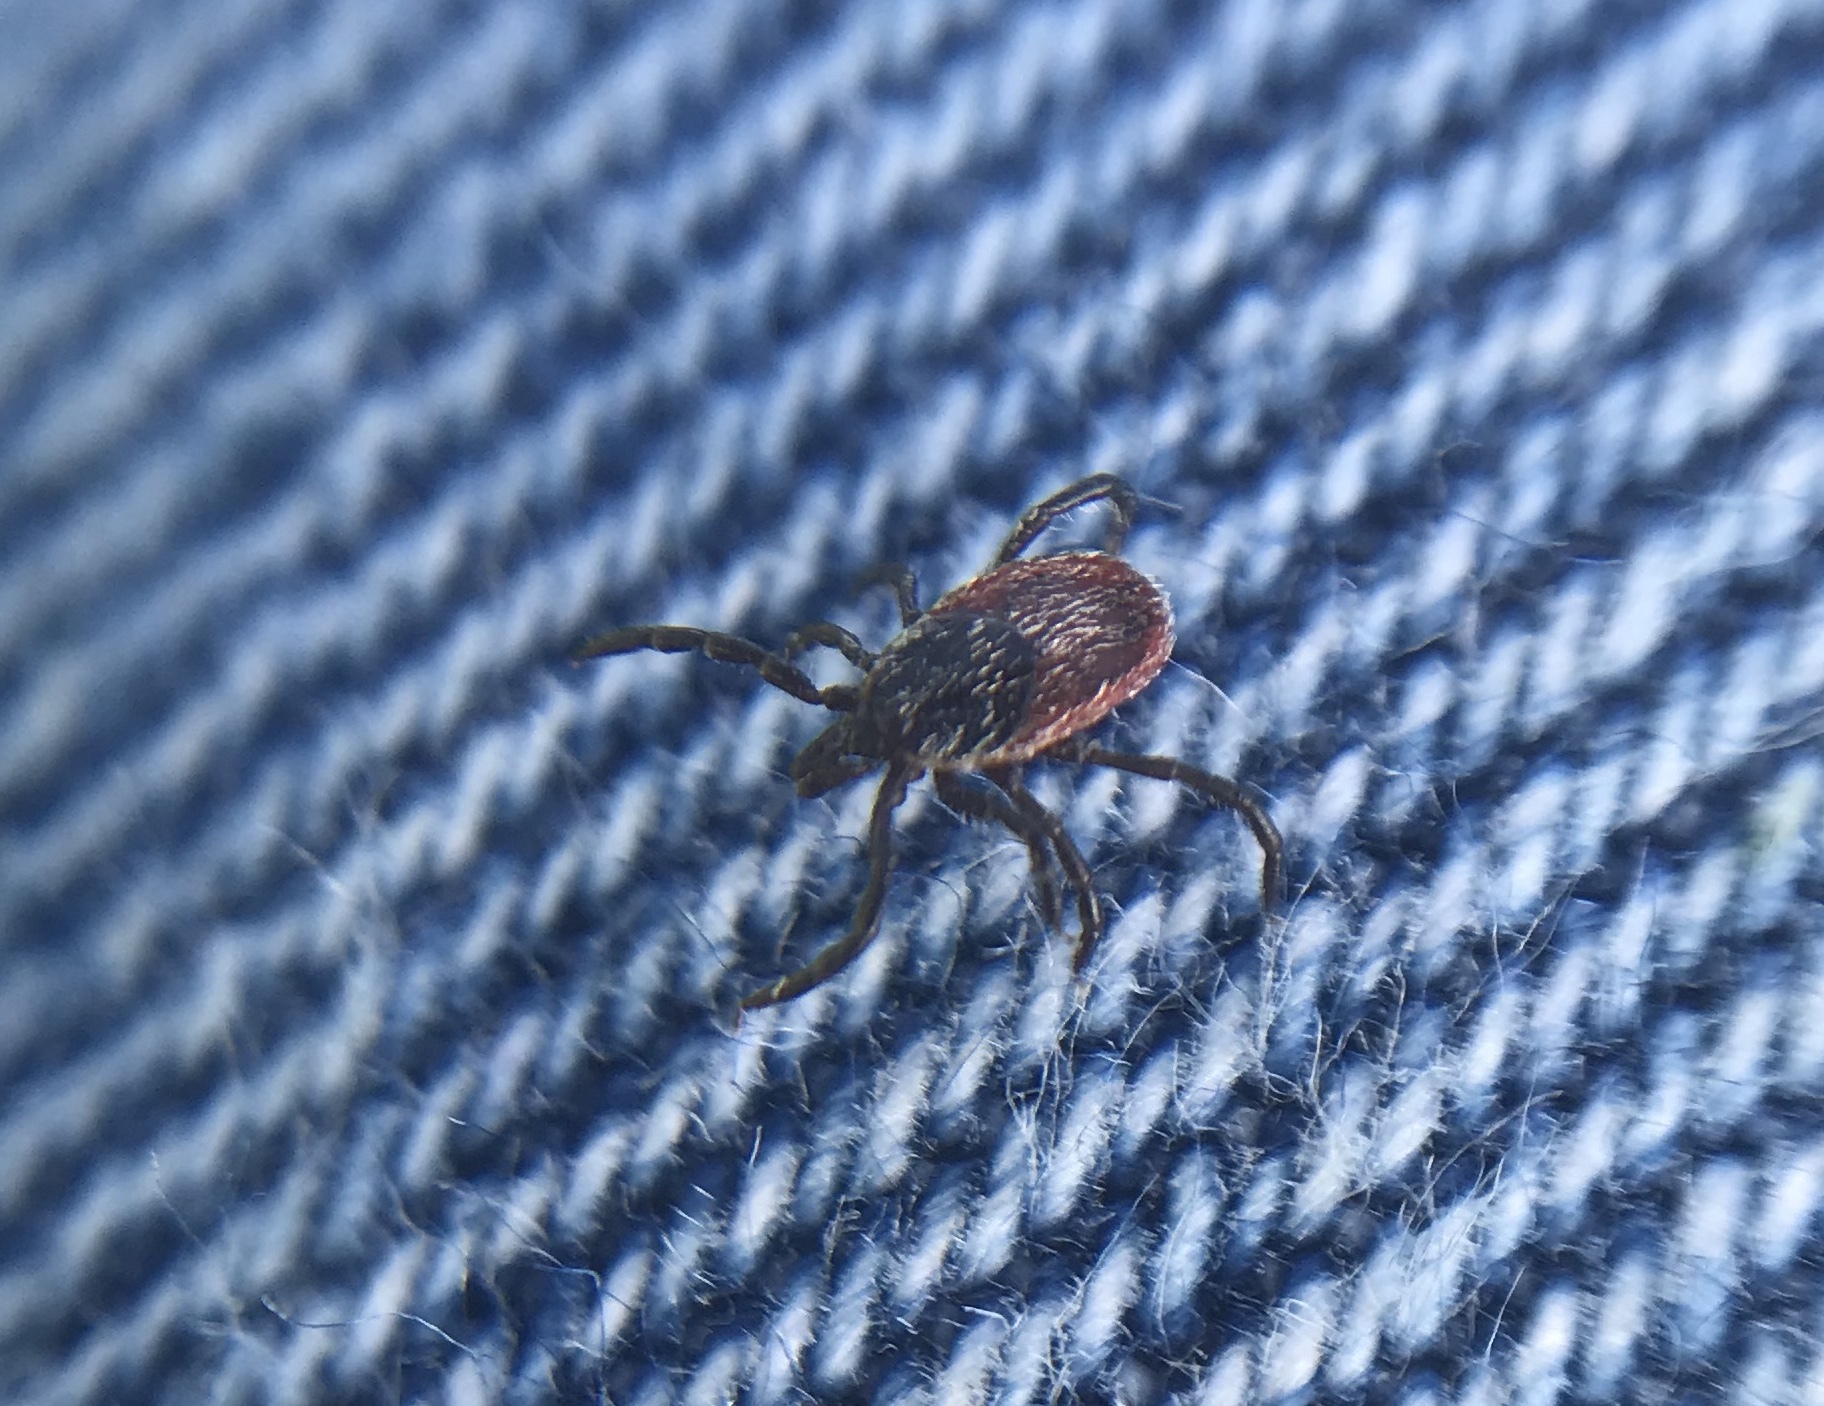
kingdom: Animalia
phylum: Arthropoda
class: Arachnida
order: Ixodida
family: Ixodidae
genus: Ixodes
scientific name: Ixodes pacificus
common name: California black-legged tick
